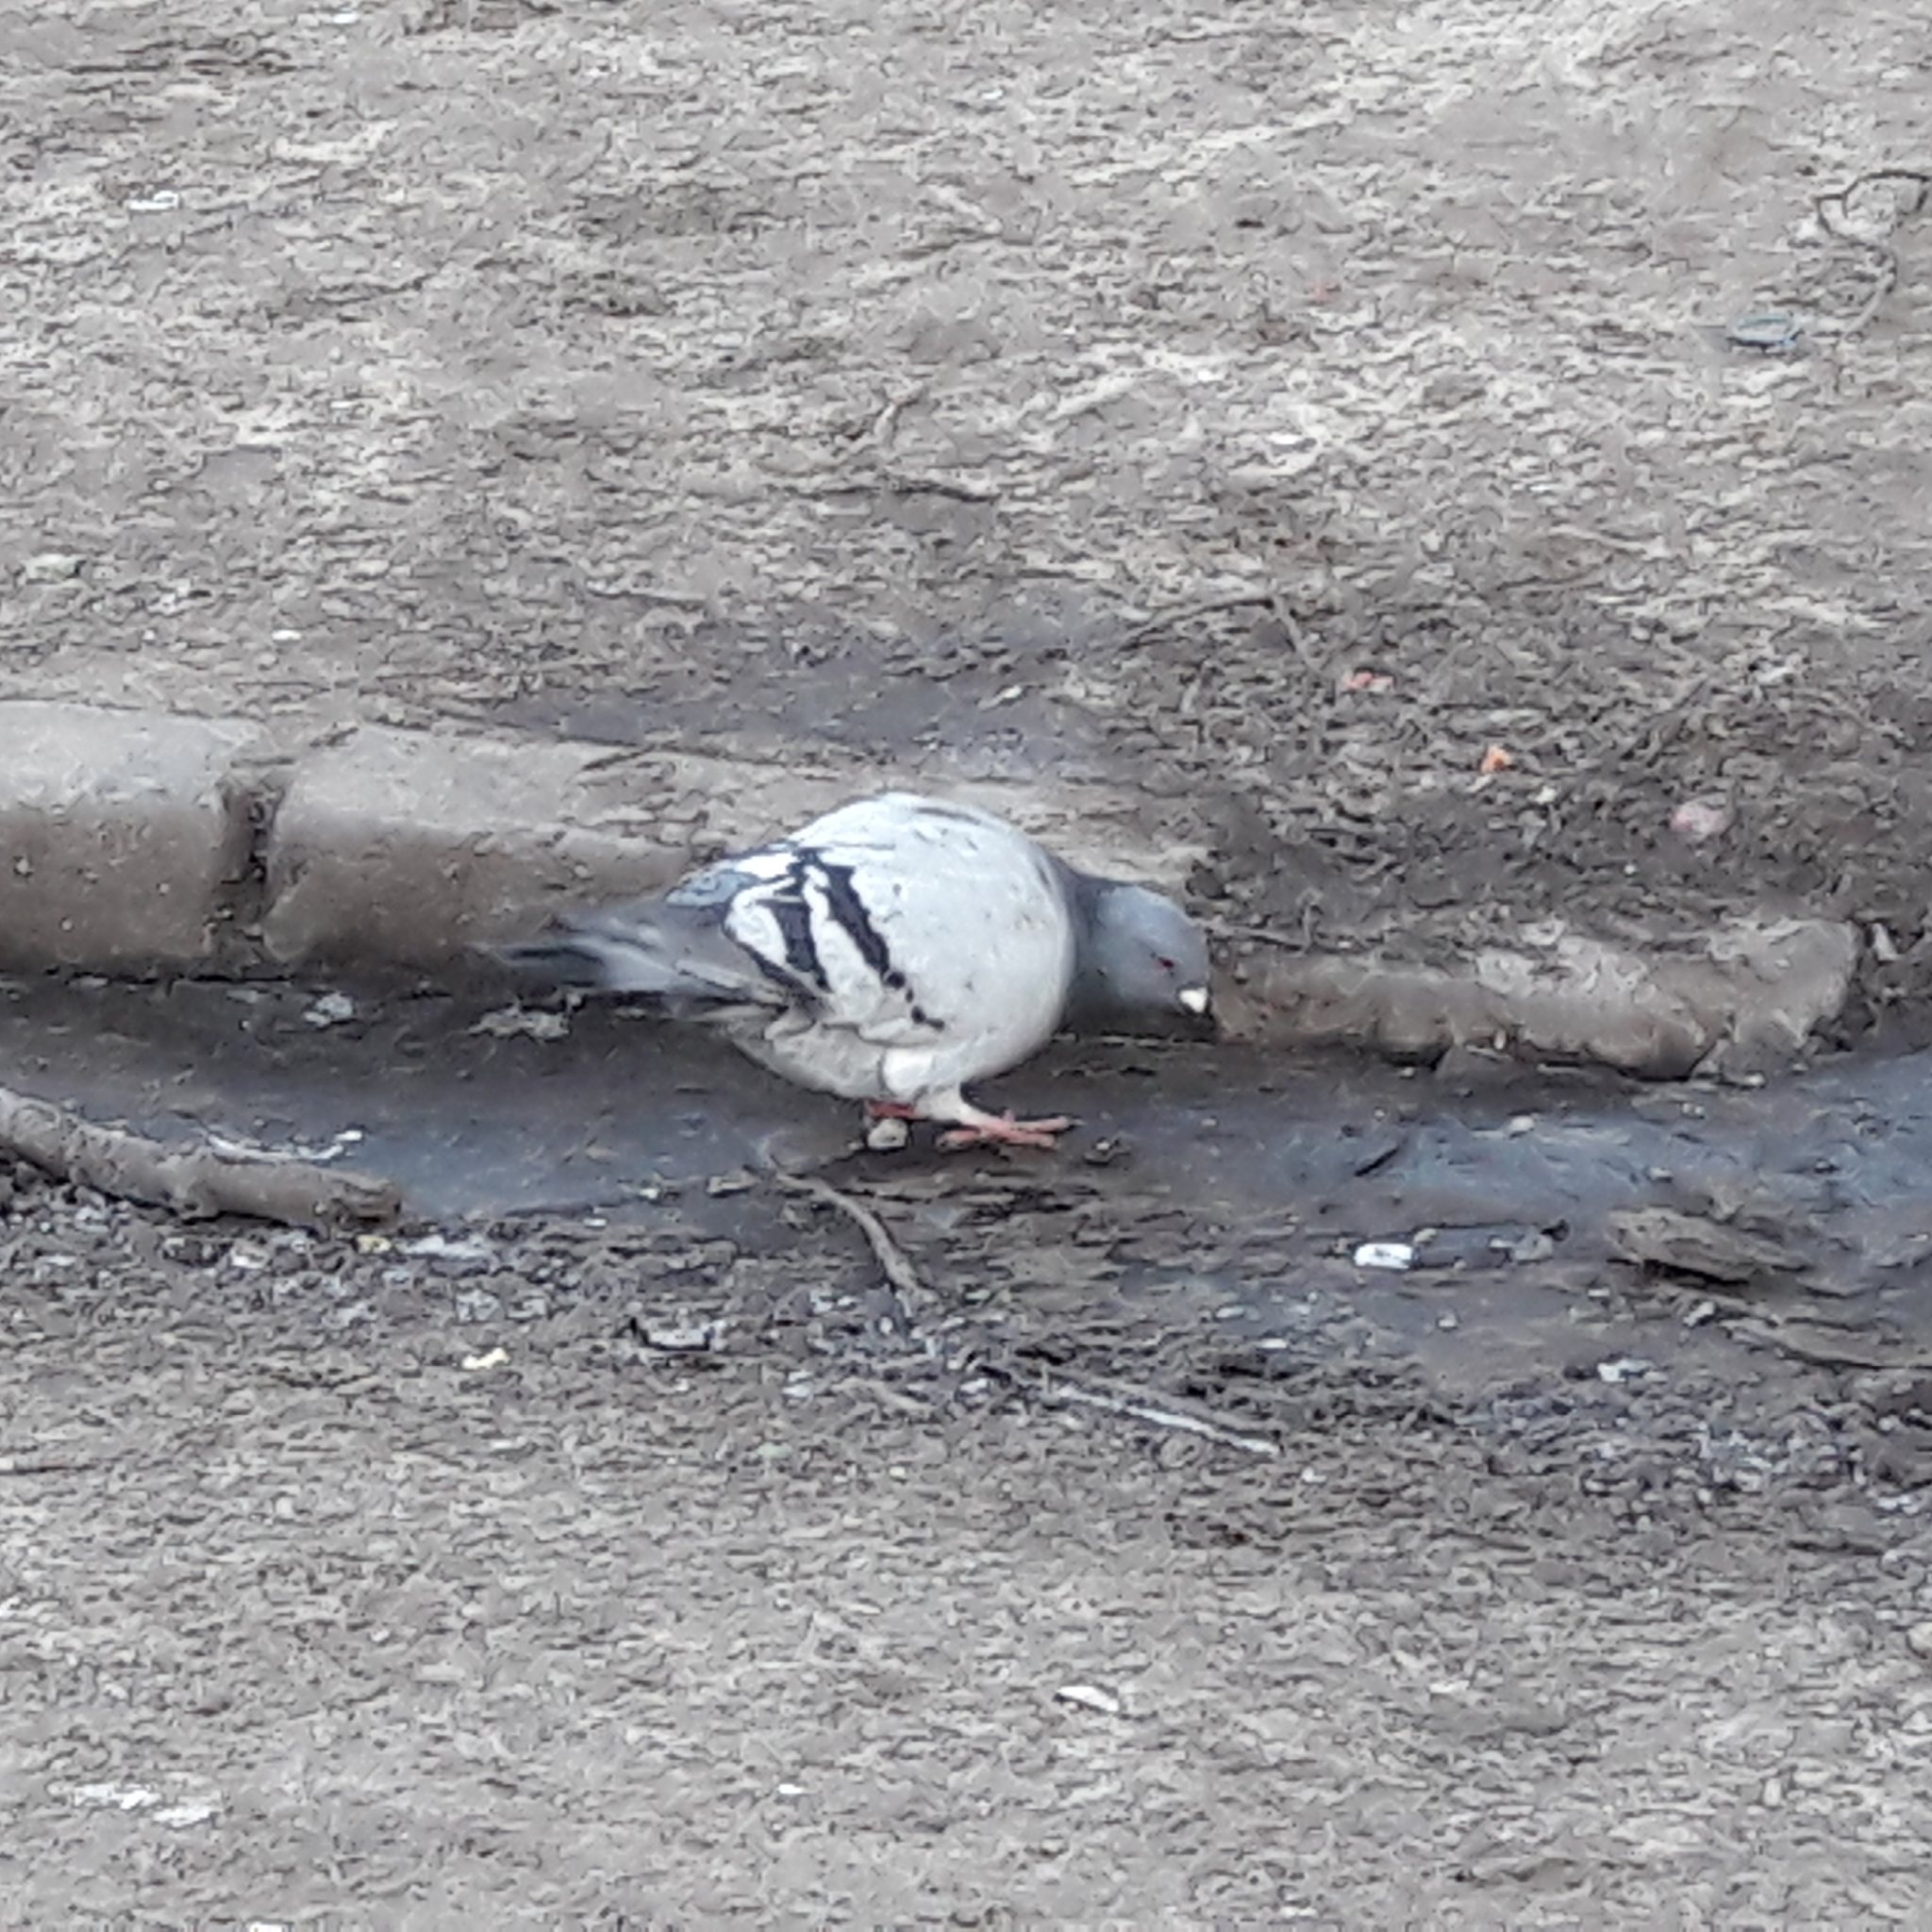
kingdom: Animalia
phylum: Chordata
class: Aves
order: Columbiformes
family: Columbidae
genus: Columba
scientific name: Columba livia
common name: Rock pigeon
